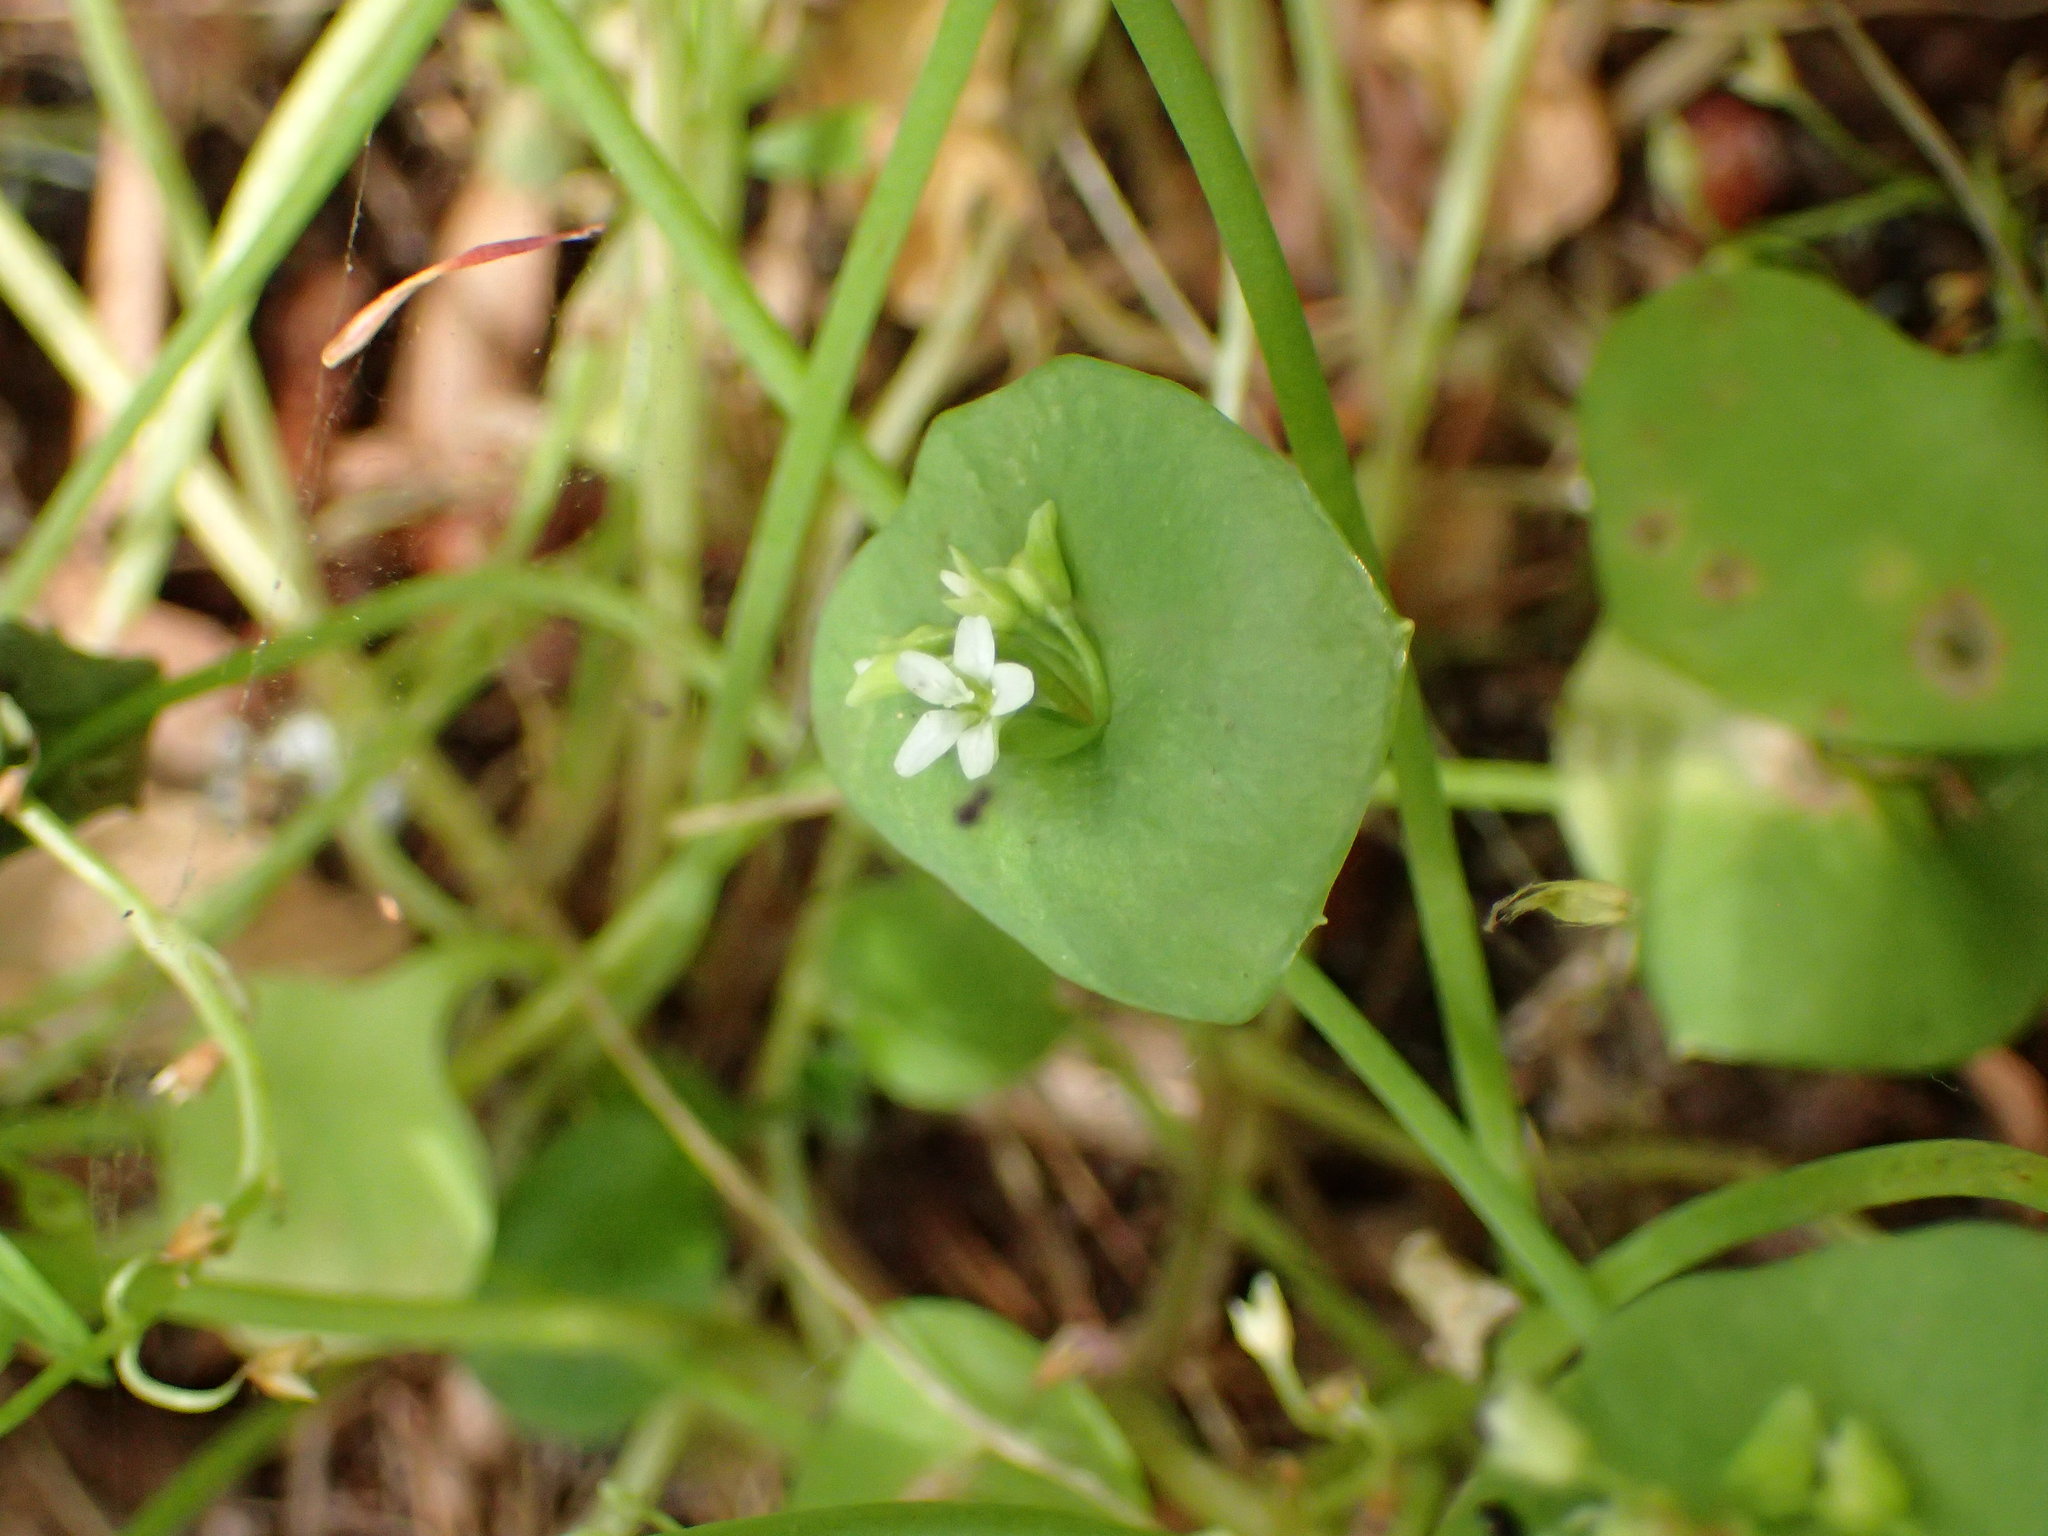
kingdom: Plantae
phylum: Tracheophyta
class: Magnoliopsida
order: Caryophyllales
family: Montiaceae
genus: Claytonia
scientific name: Claytonia perfoliata
